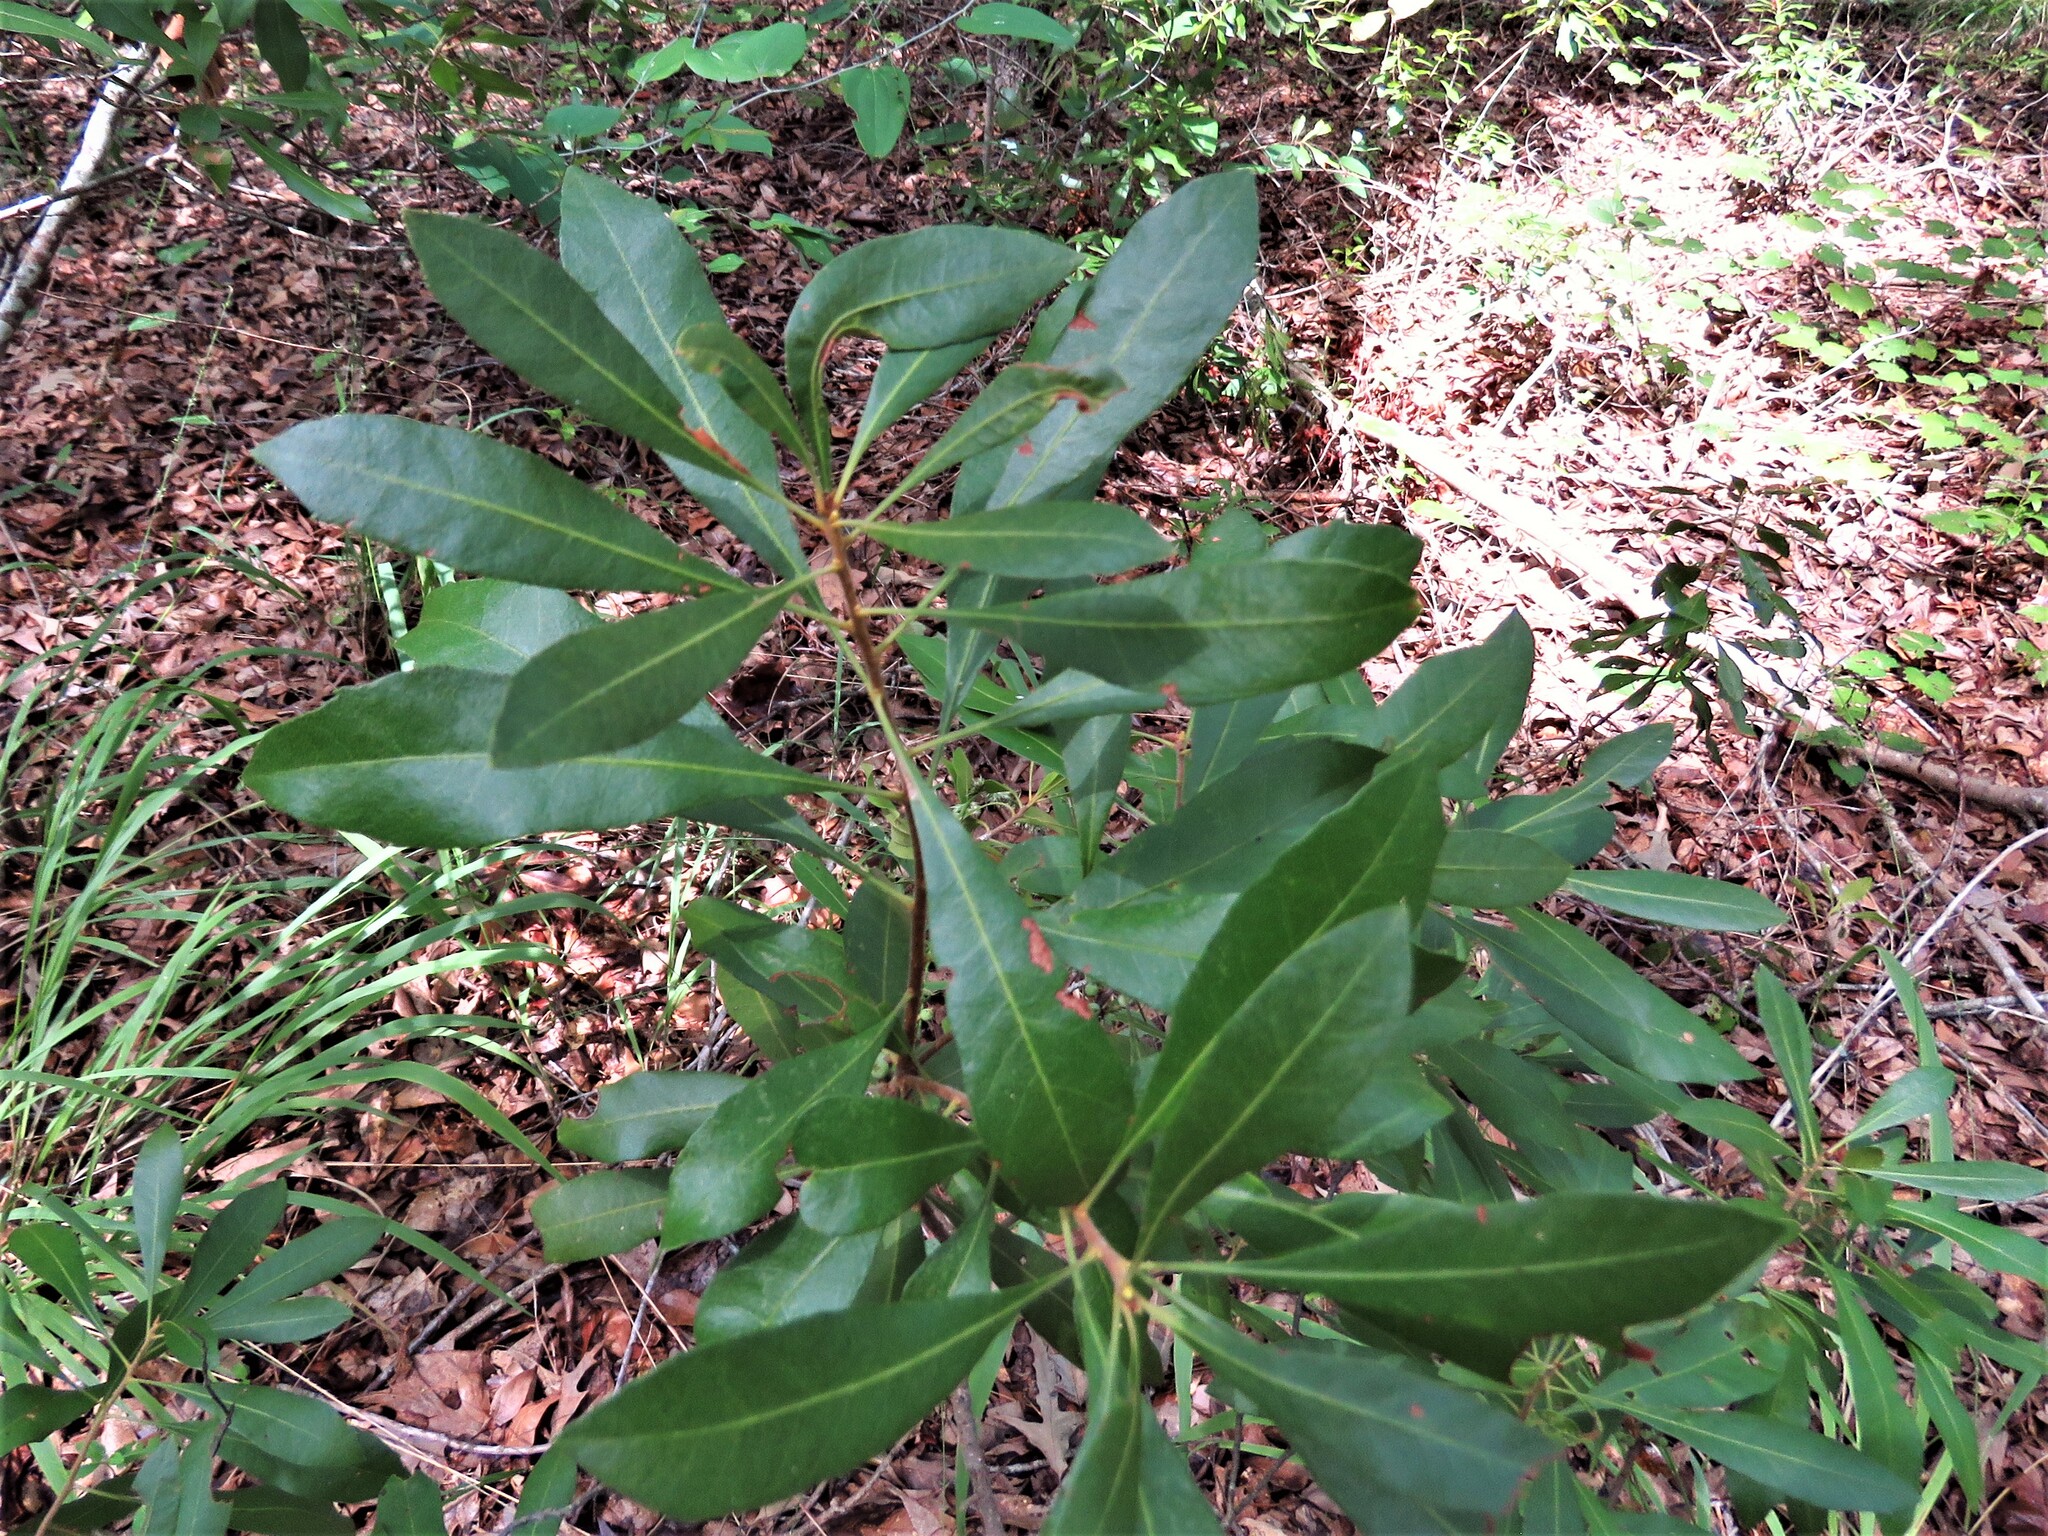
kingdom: Plantae
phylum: Tracheophyta
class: Magnoliopsida
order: Fagales
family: Myricaceae
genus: Morella
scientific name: Morella cerifera
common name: Wax myrtle
